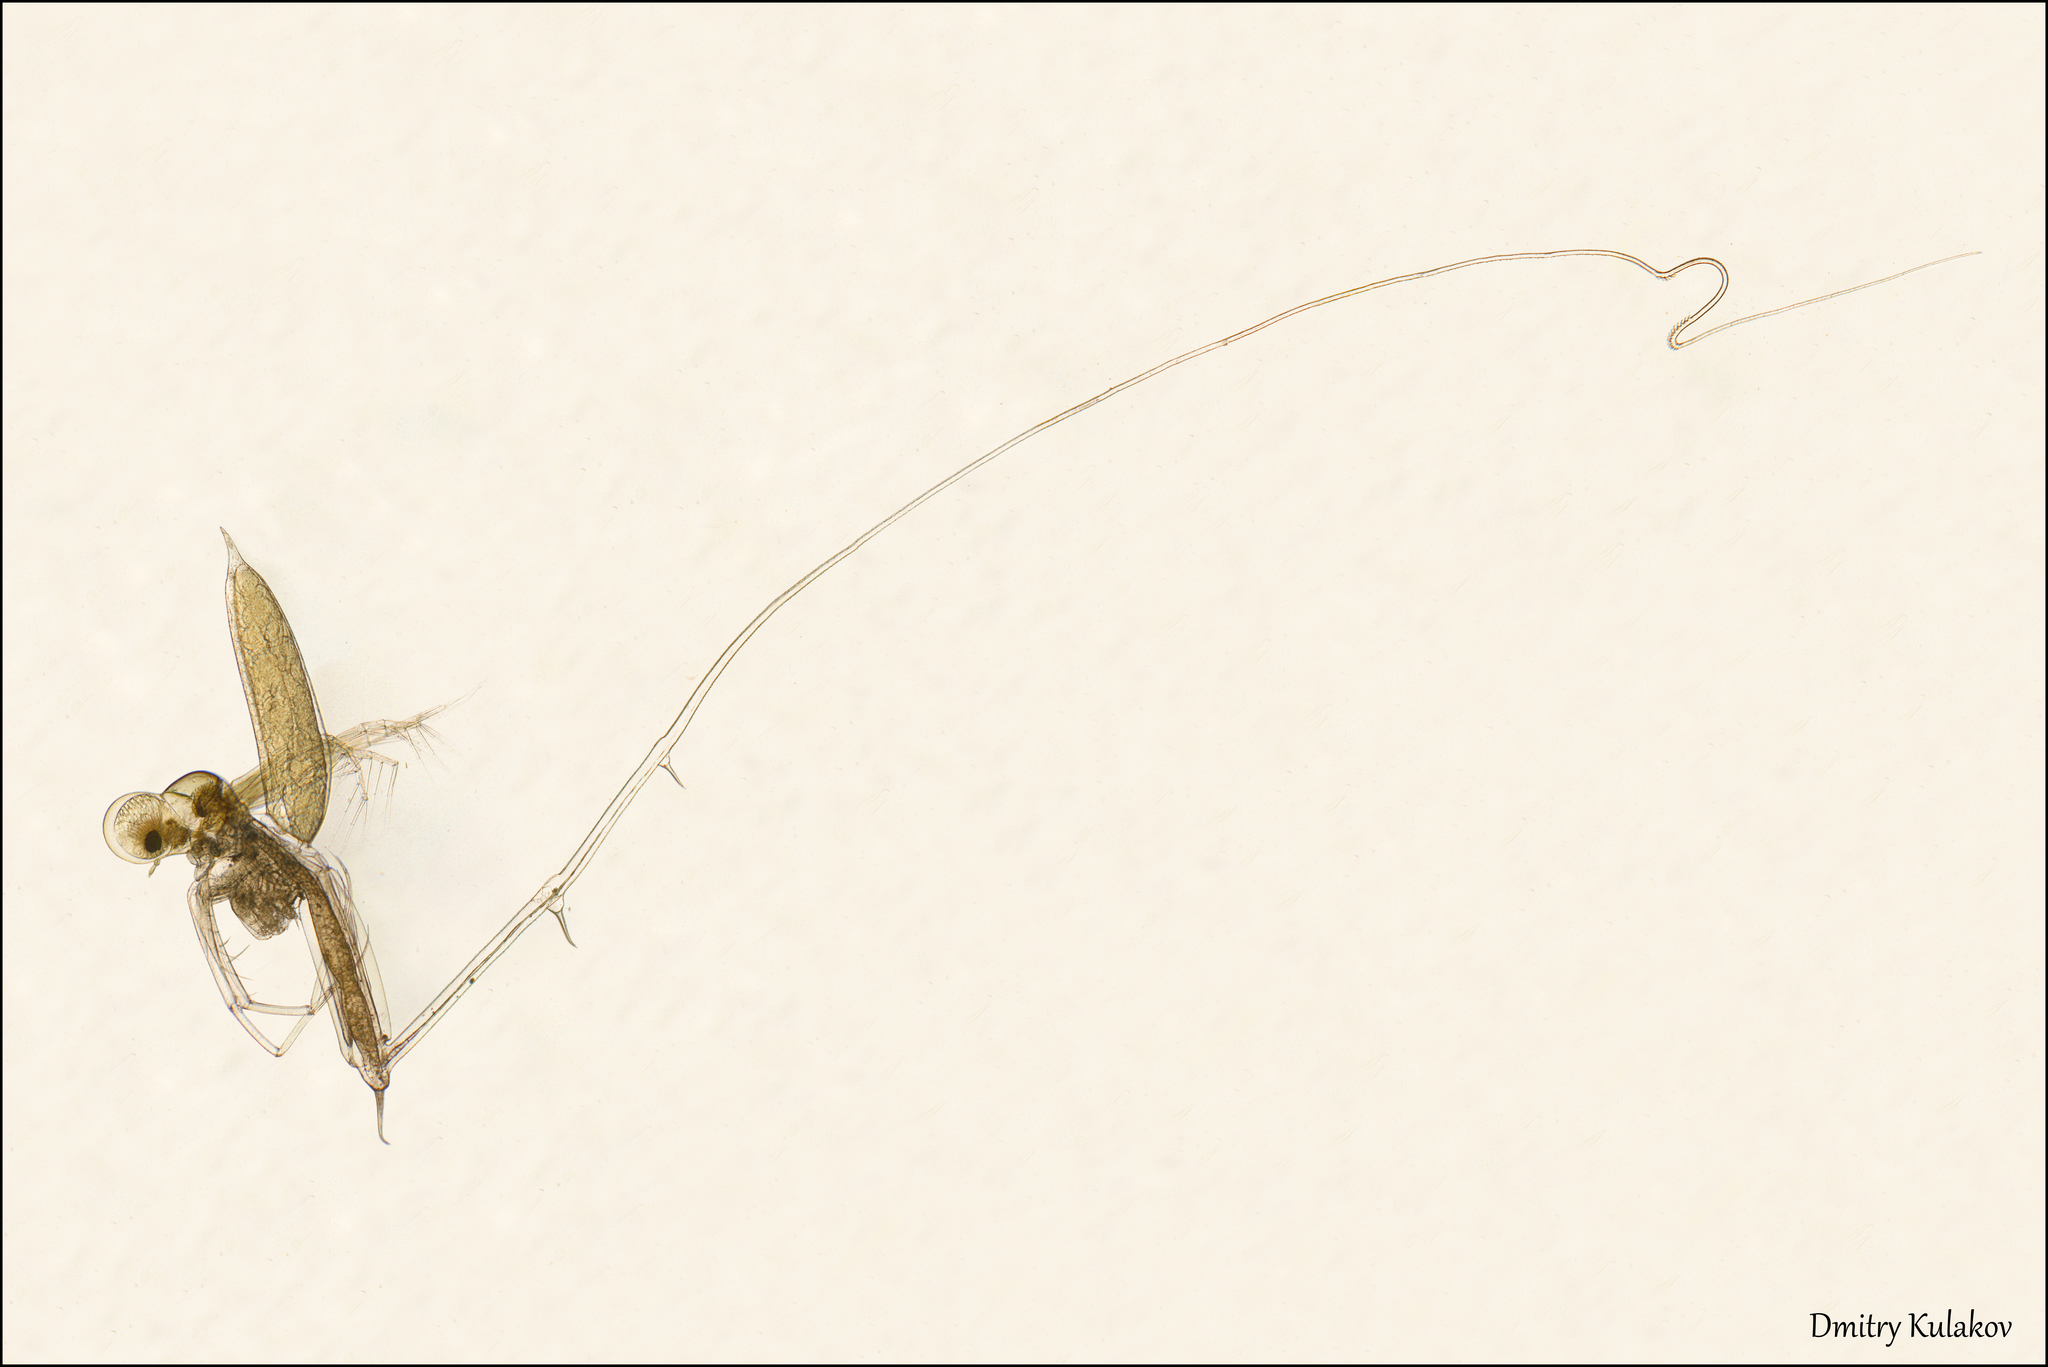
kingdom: Animalia
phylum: Arthropoda
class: Branchiopoda
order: Diplostraca
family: Cercopagidae
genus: Cercopagis
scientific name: Cercopagis pengoi
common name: Fishhook waterflea
